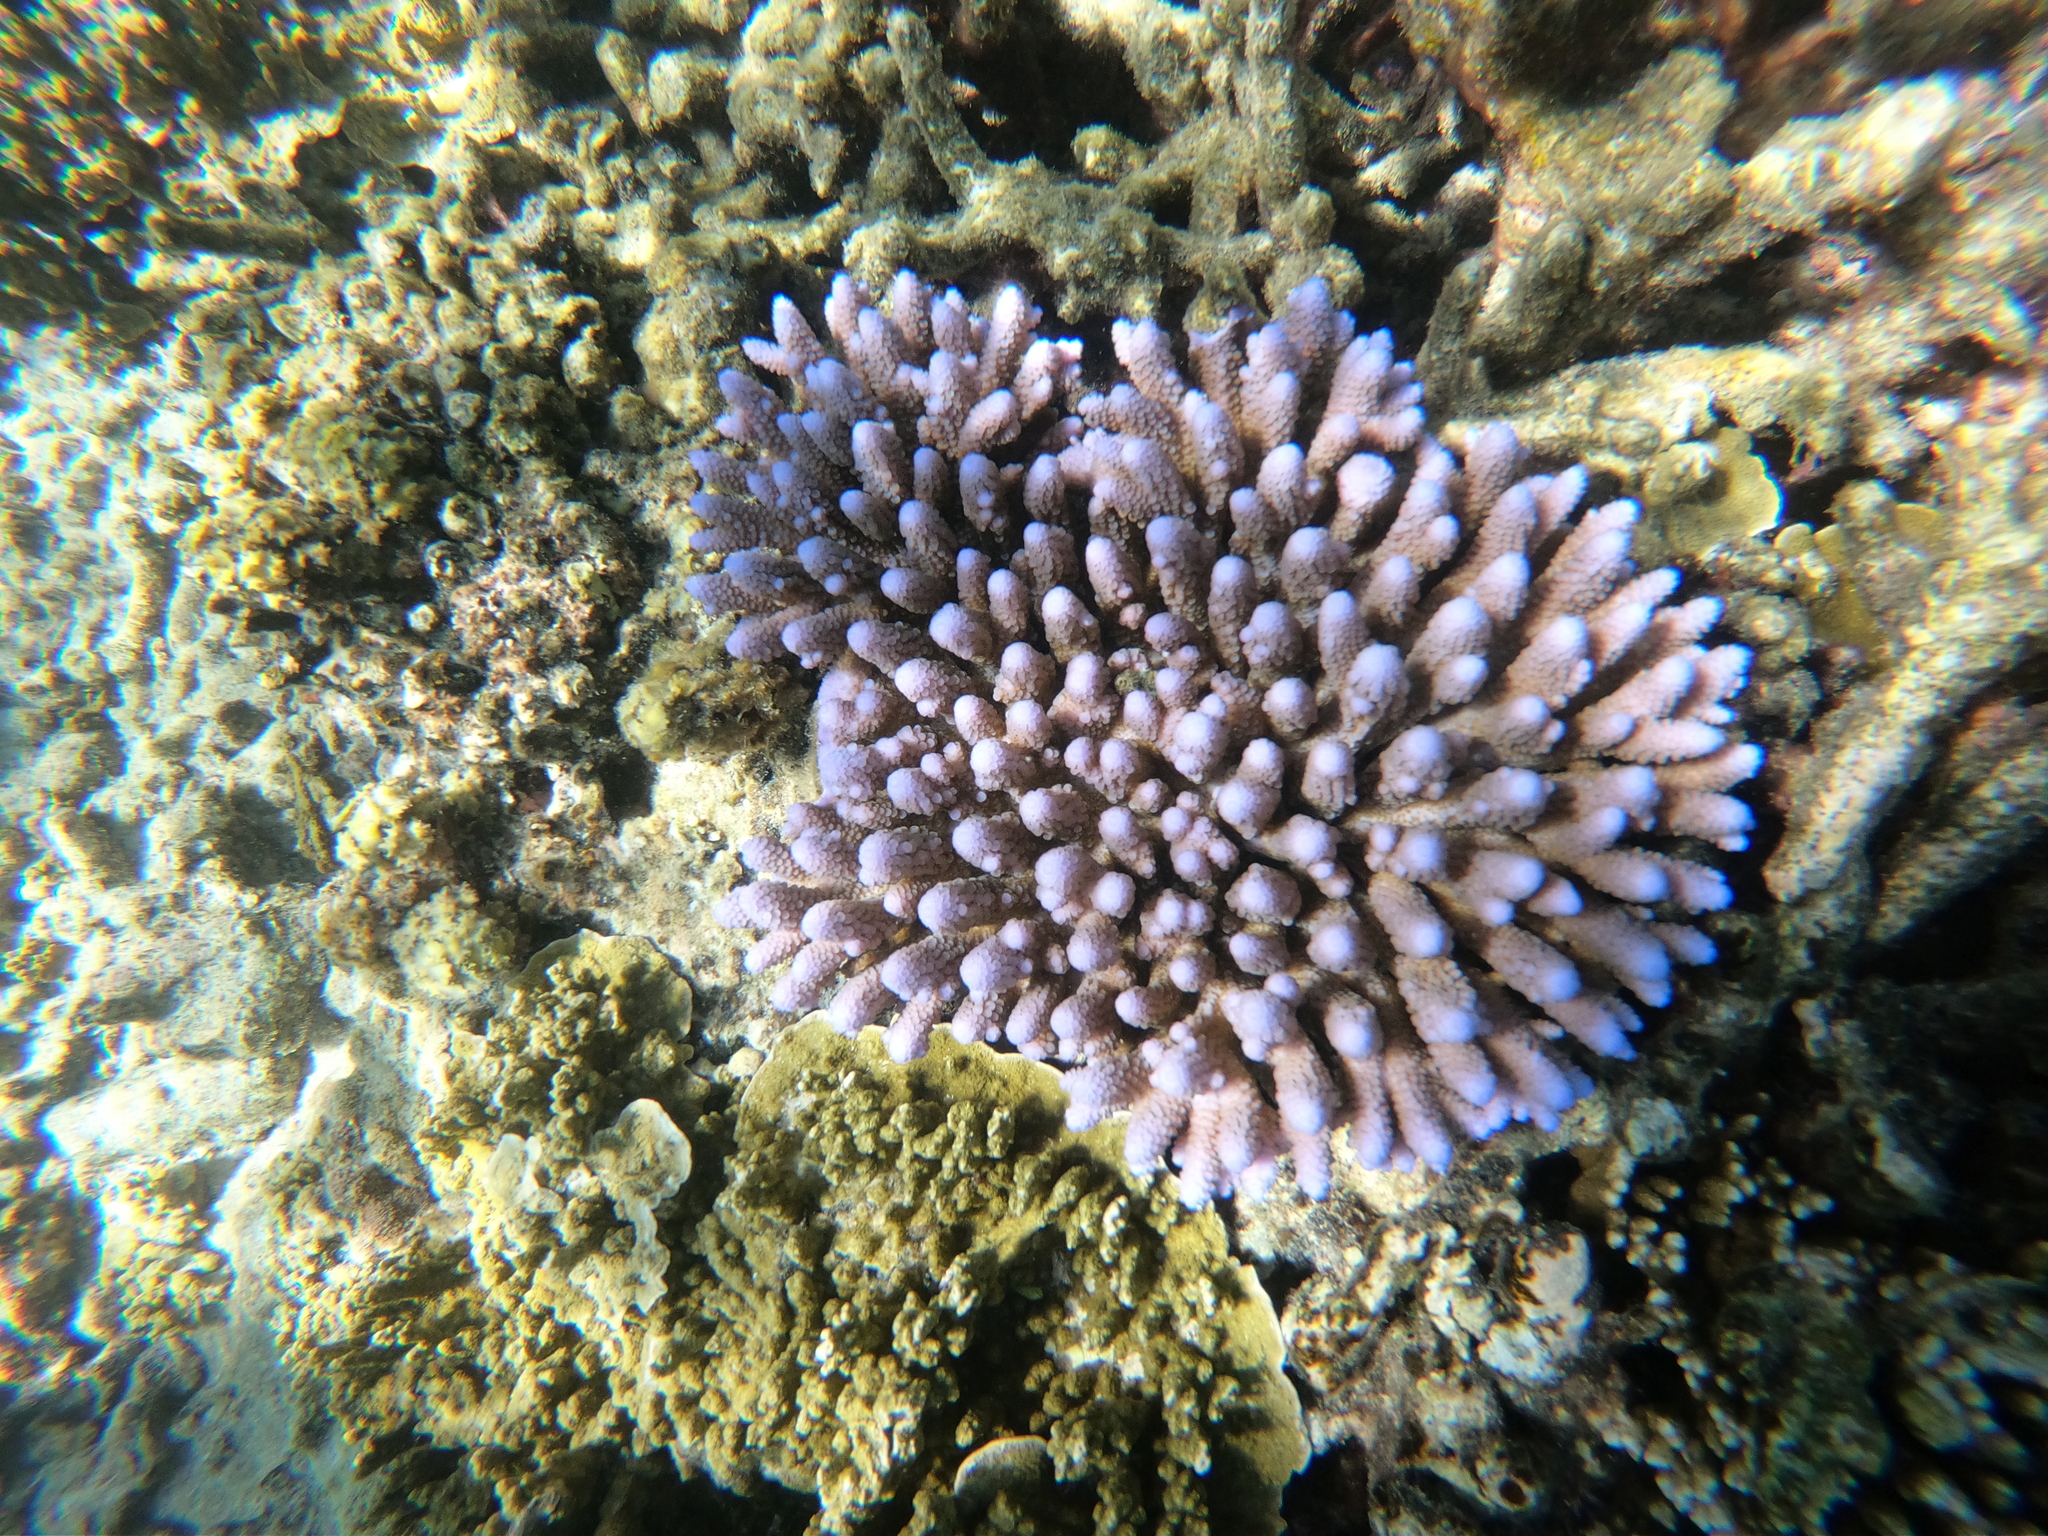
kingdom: Animalia
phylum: Cnidaria
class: Anthozoa
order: Scleractinia
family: Acroporidae
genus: Acropora
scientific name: Acropora humilis
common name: Finger coral
